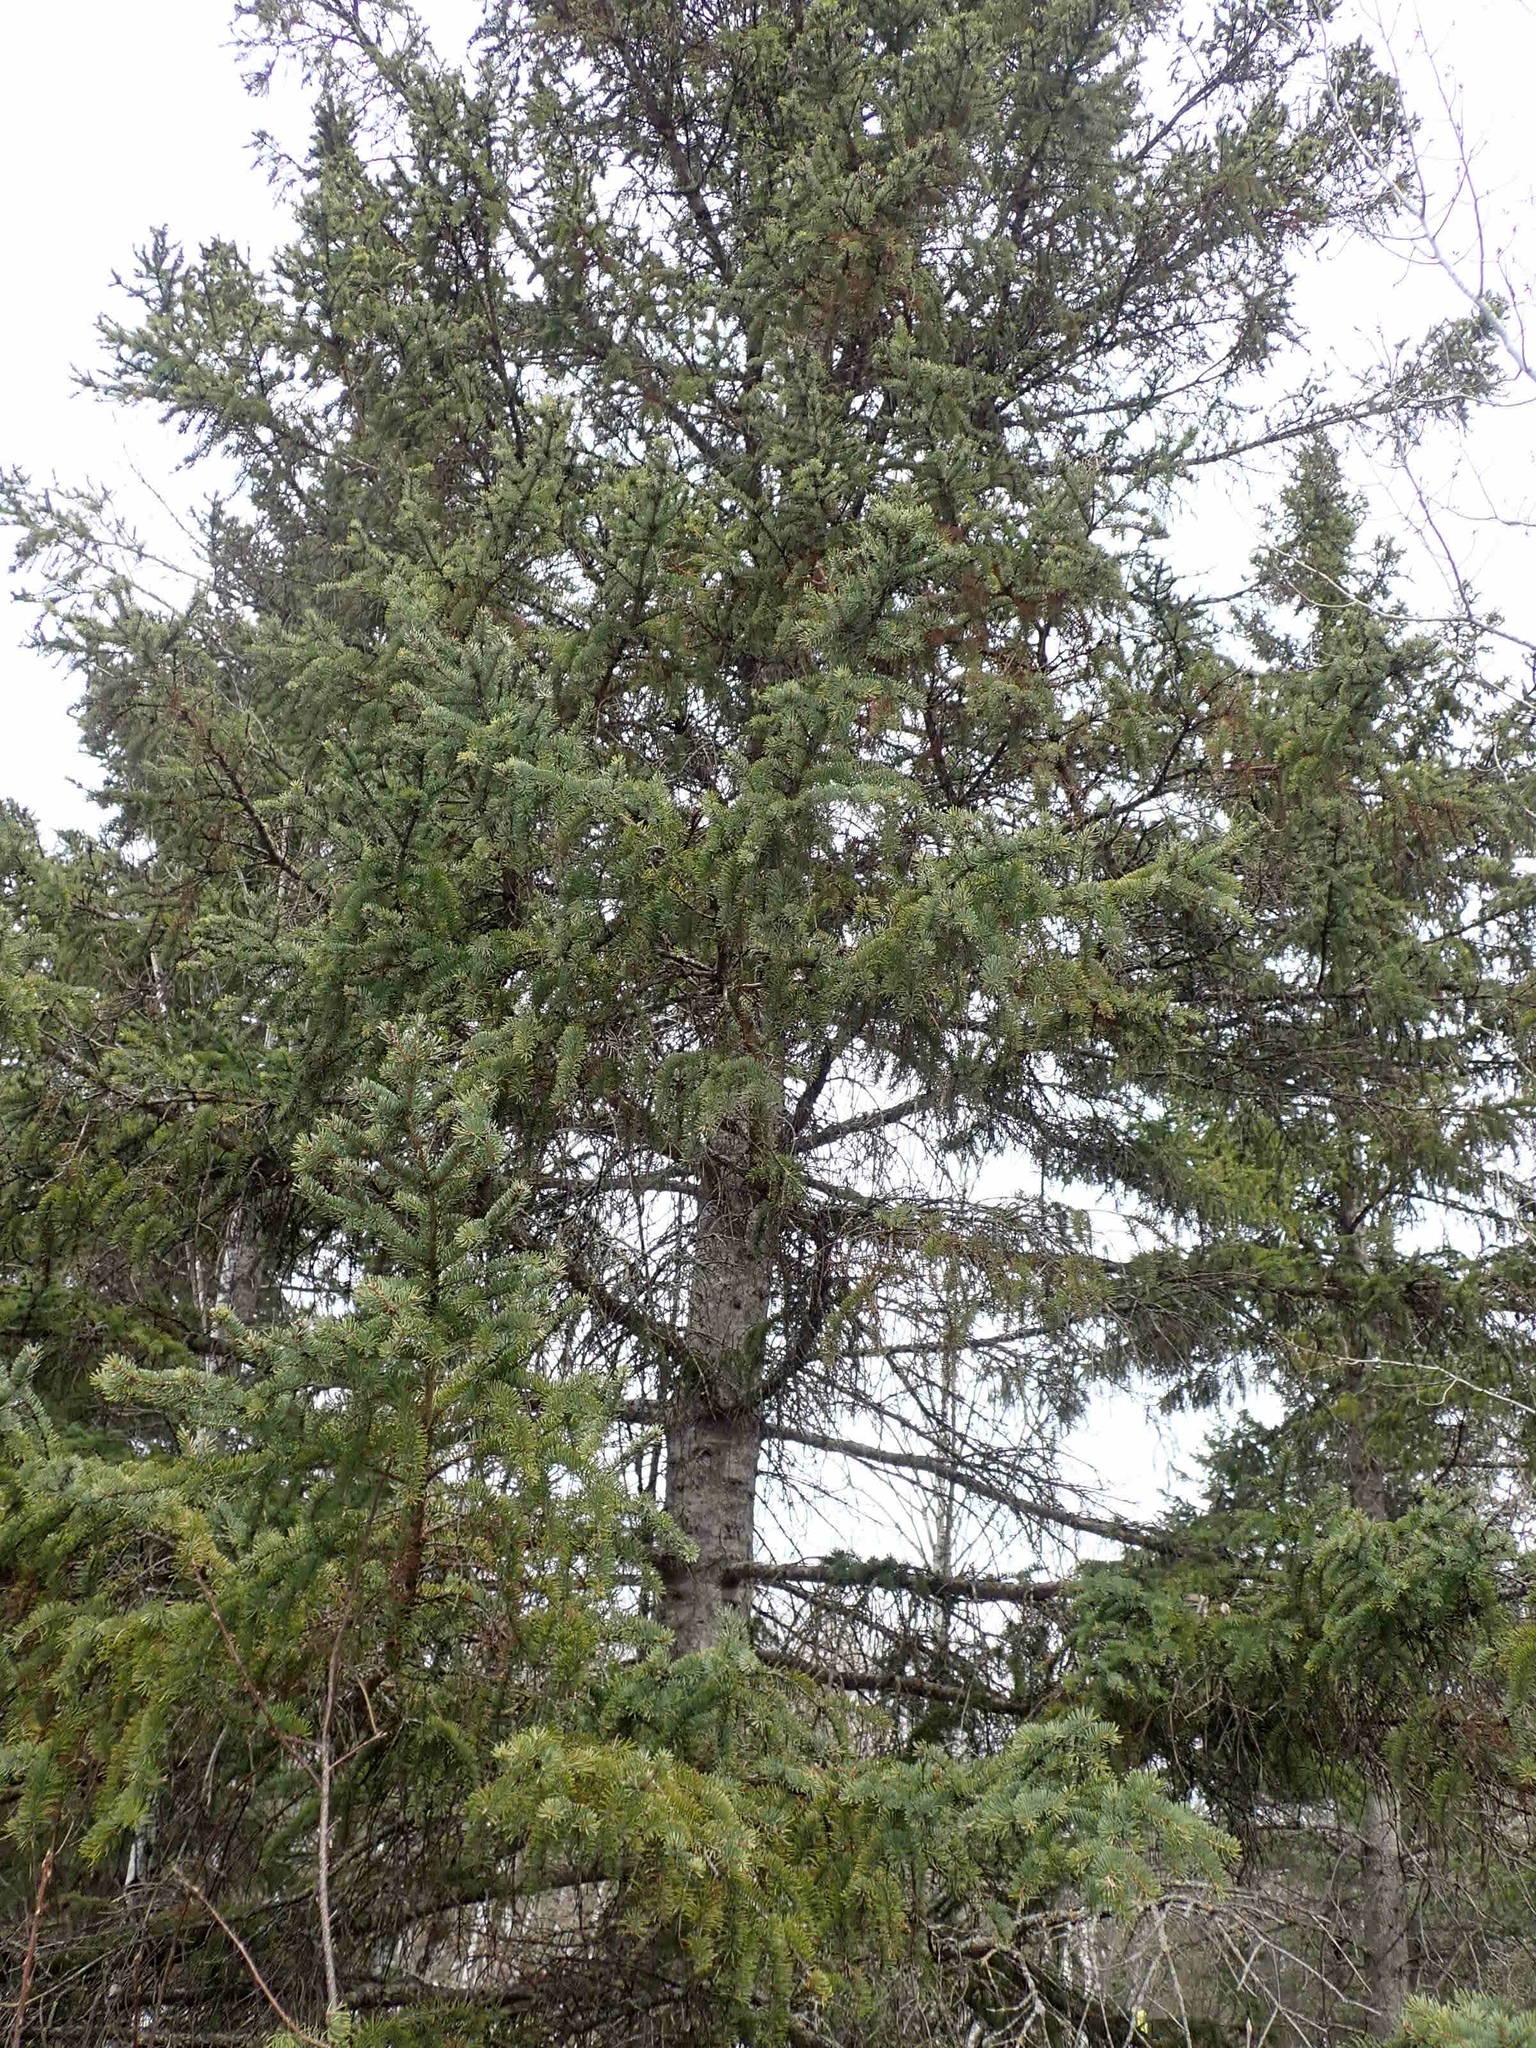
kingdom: Plantae
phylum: Tracheophyta
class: Pinopsida
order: Pinales
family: Pinaceae
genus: Picea
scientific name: Picea glauca
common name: White spruce
